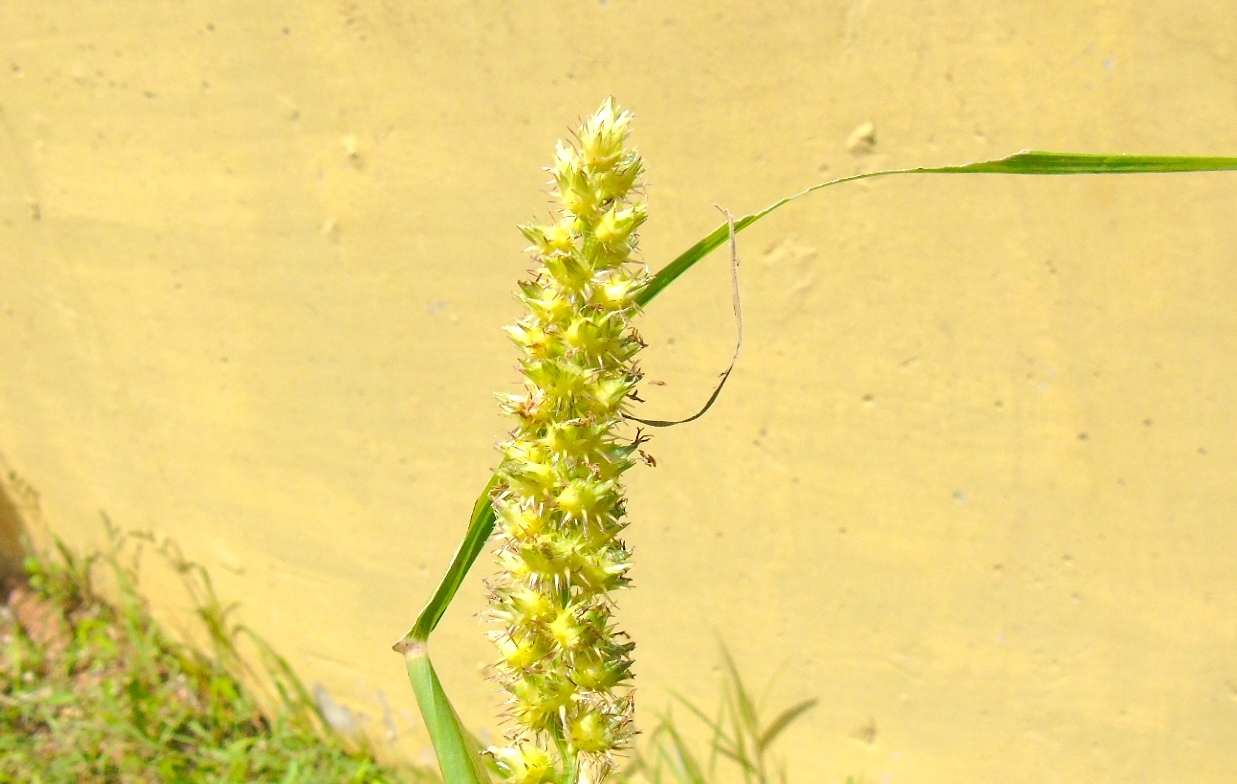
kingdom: Plantae
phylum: Tracheophyta
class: Liliopsida
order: Poales
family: Poaceae
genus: Cenchrus
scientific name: Cenchrus echinatus
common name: Southern sandbur
